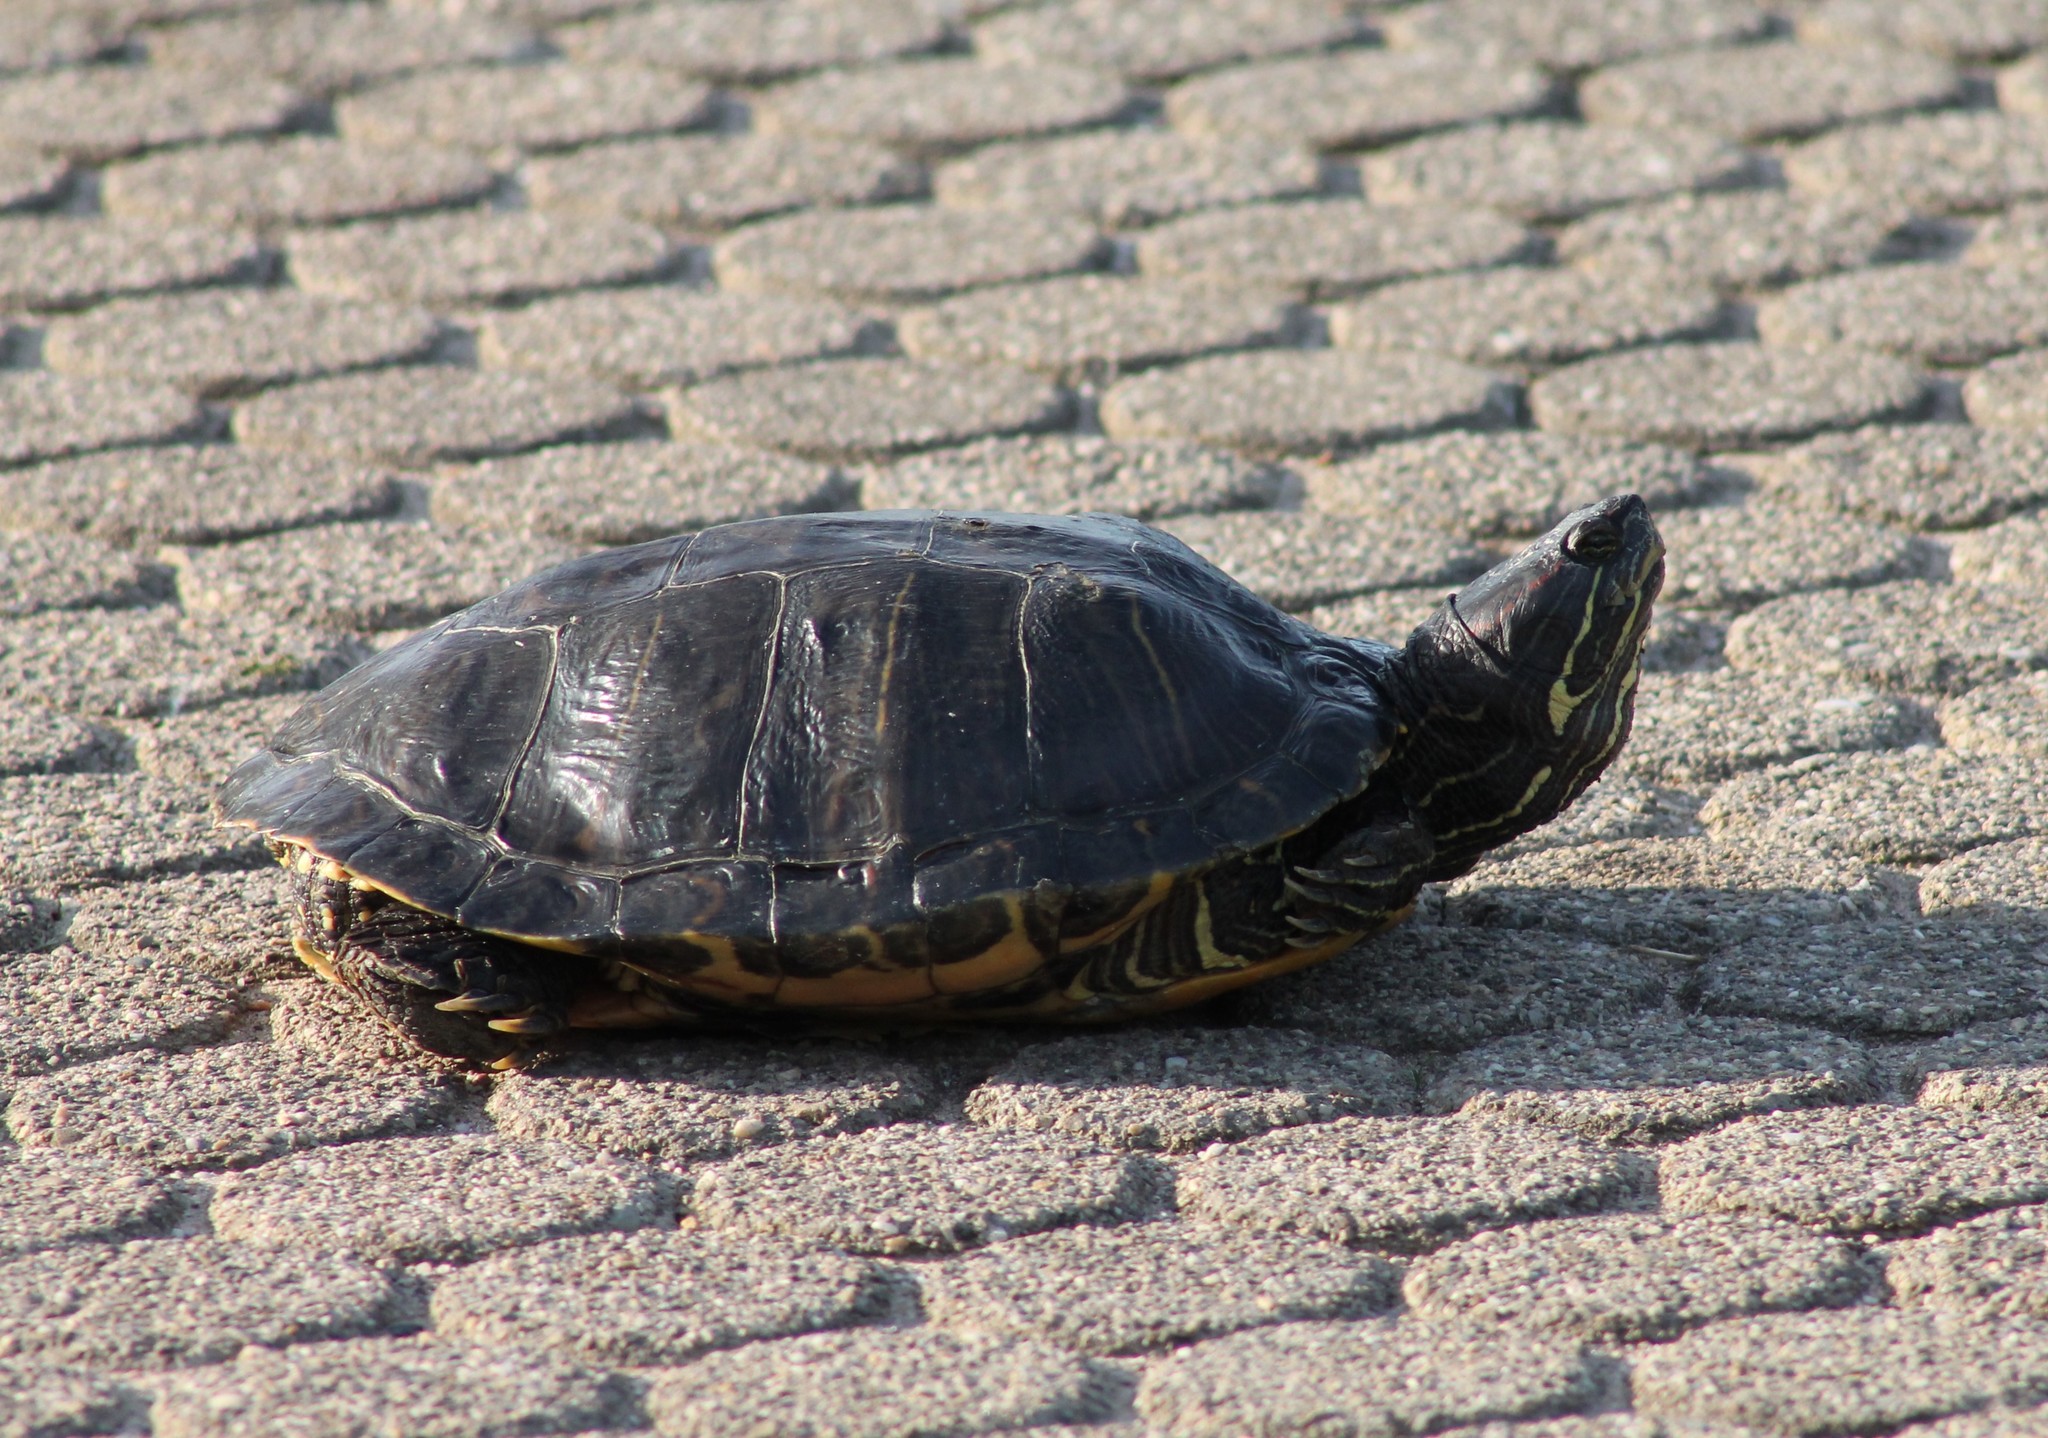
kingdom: Animalia
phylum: Chordata
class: Testudines
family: Emydidae
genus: Trachemys
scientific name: Trachemys scripta
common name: Slider
